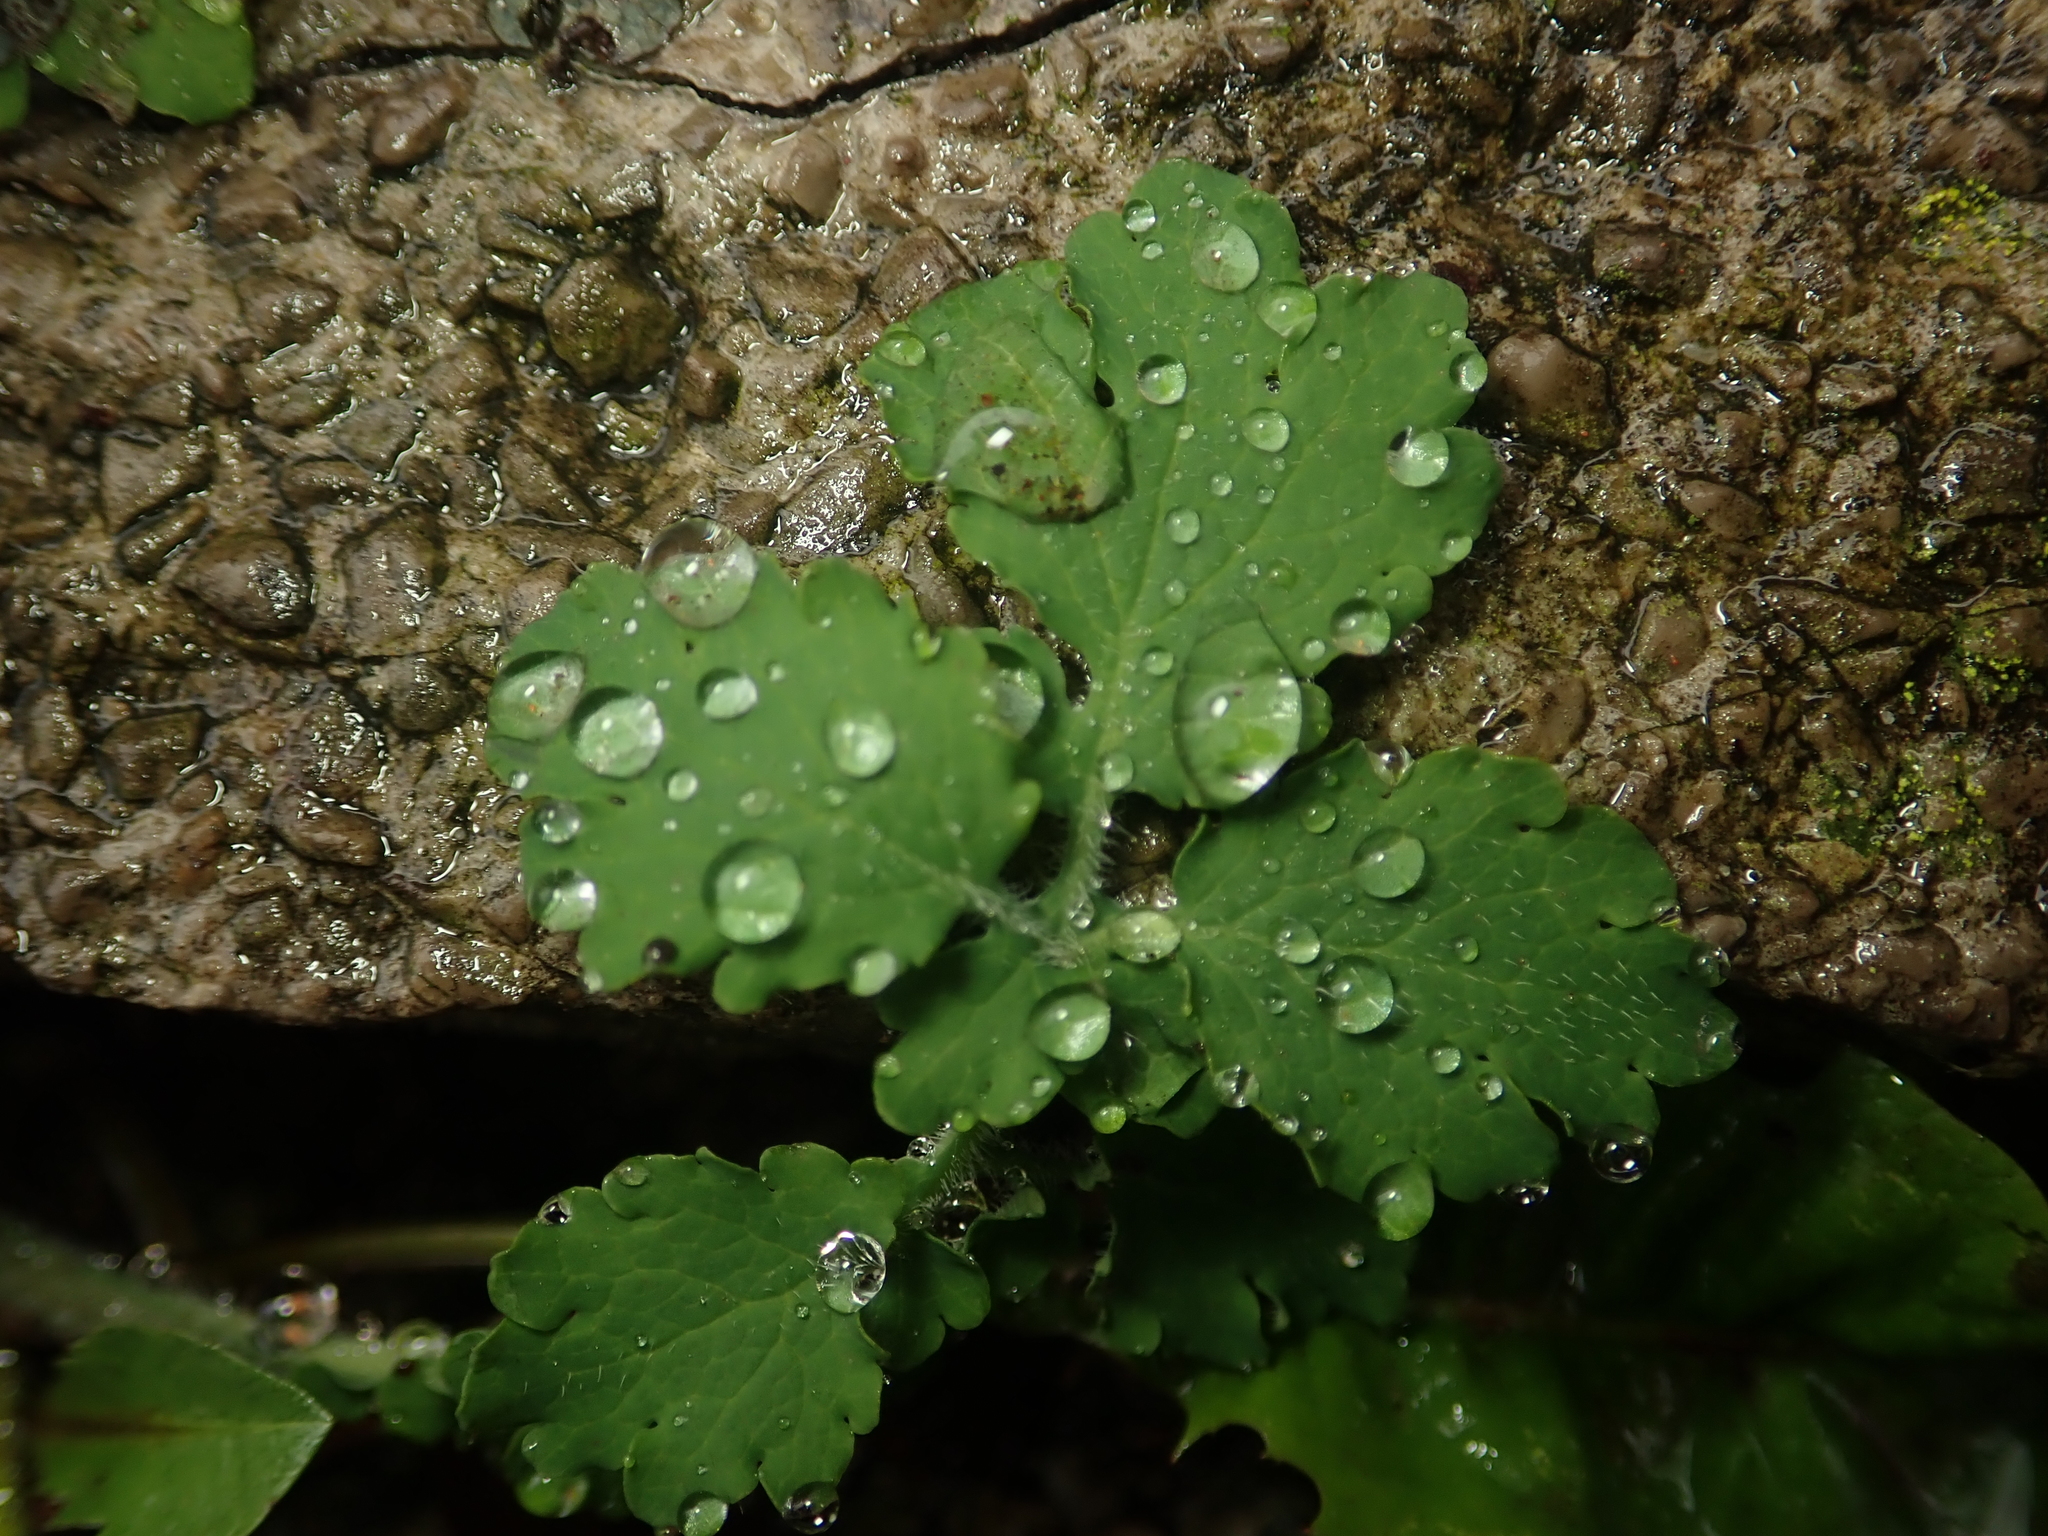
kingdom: Plantae
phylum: Tracheophyta
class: Magnoliopsida
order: Ranunculales
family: Papaveraceae
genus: Chelidonium
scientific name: Chelidonium majus
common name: Greater celandine
